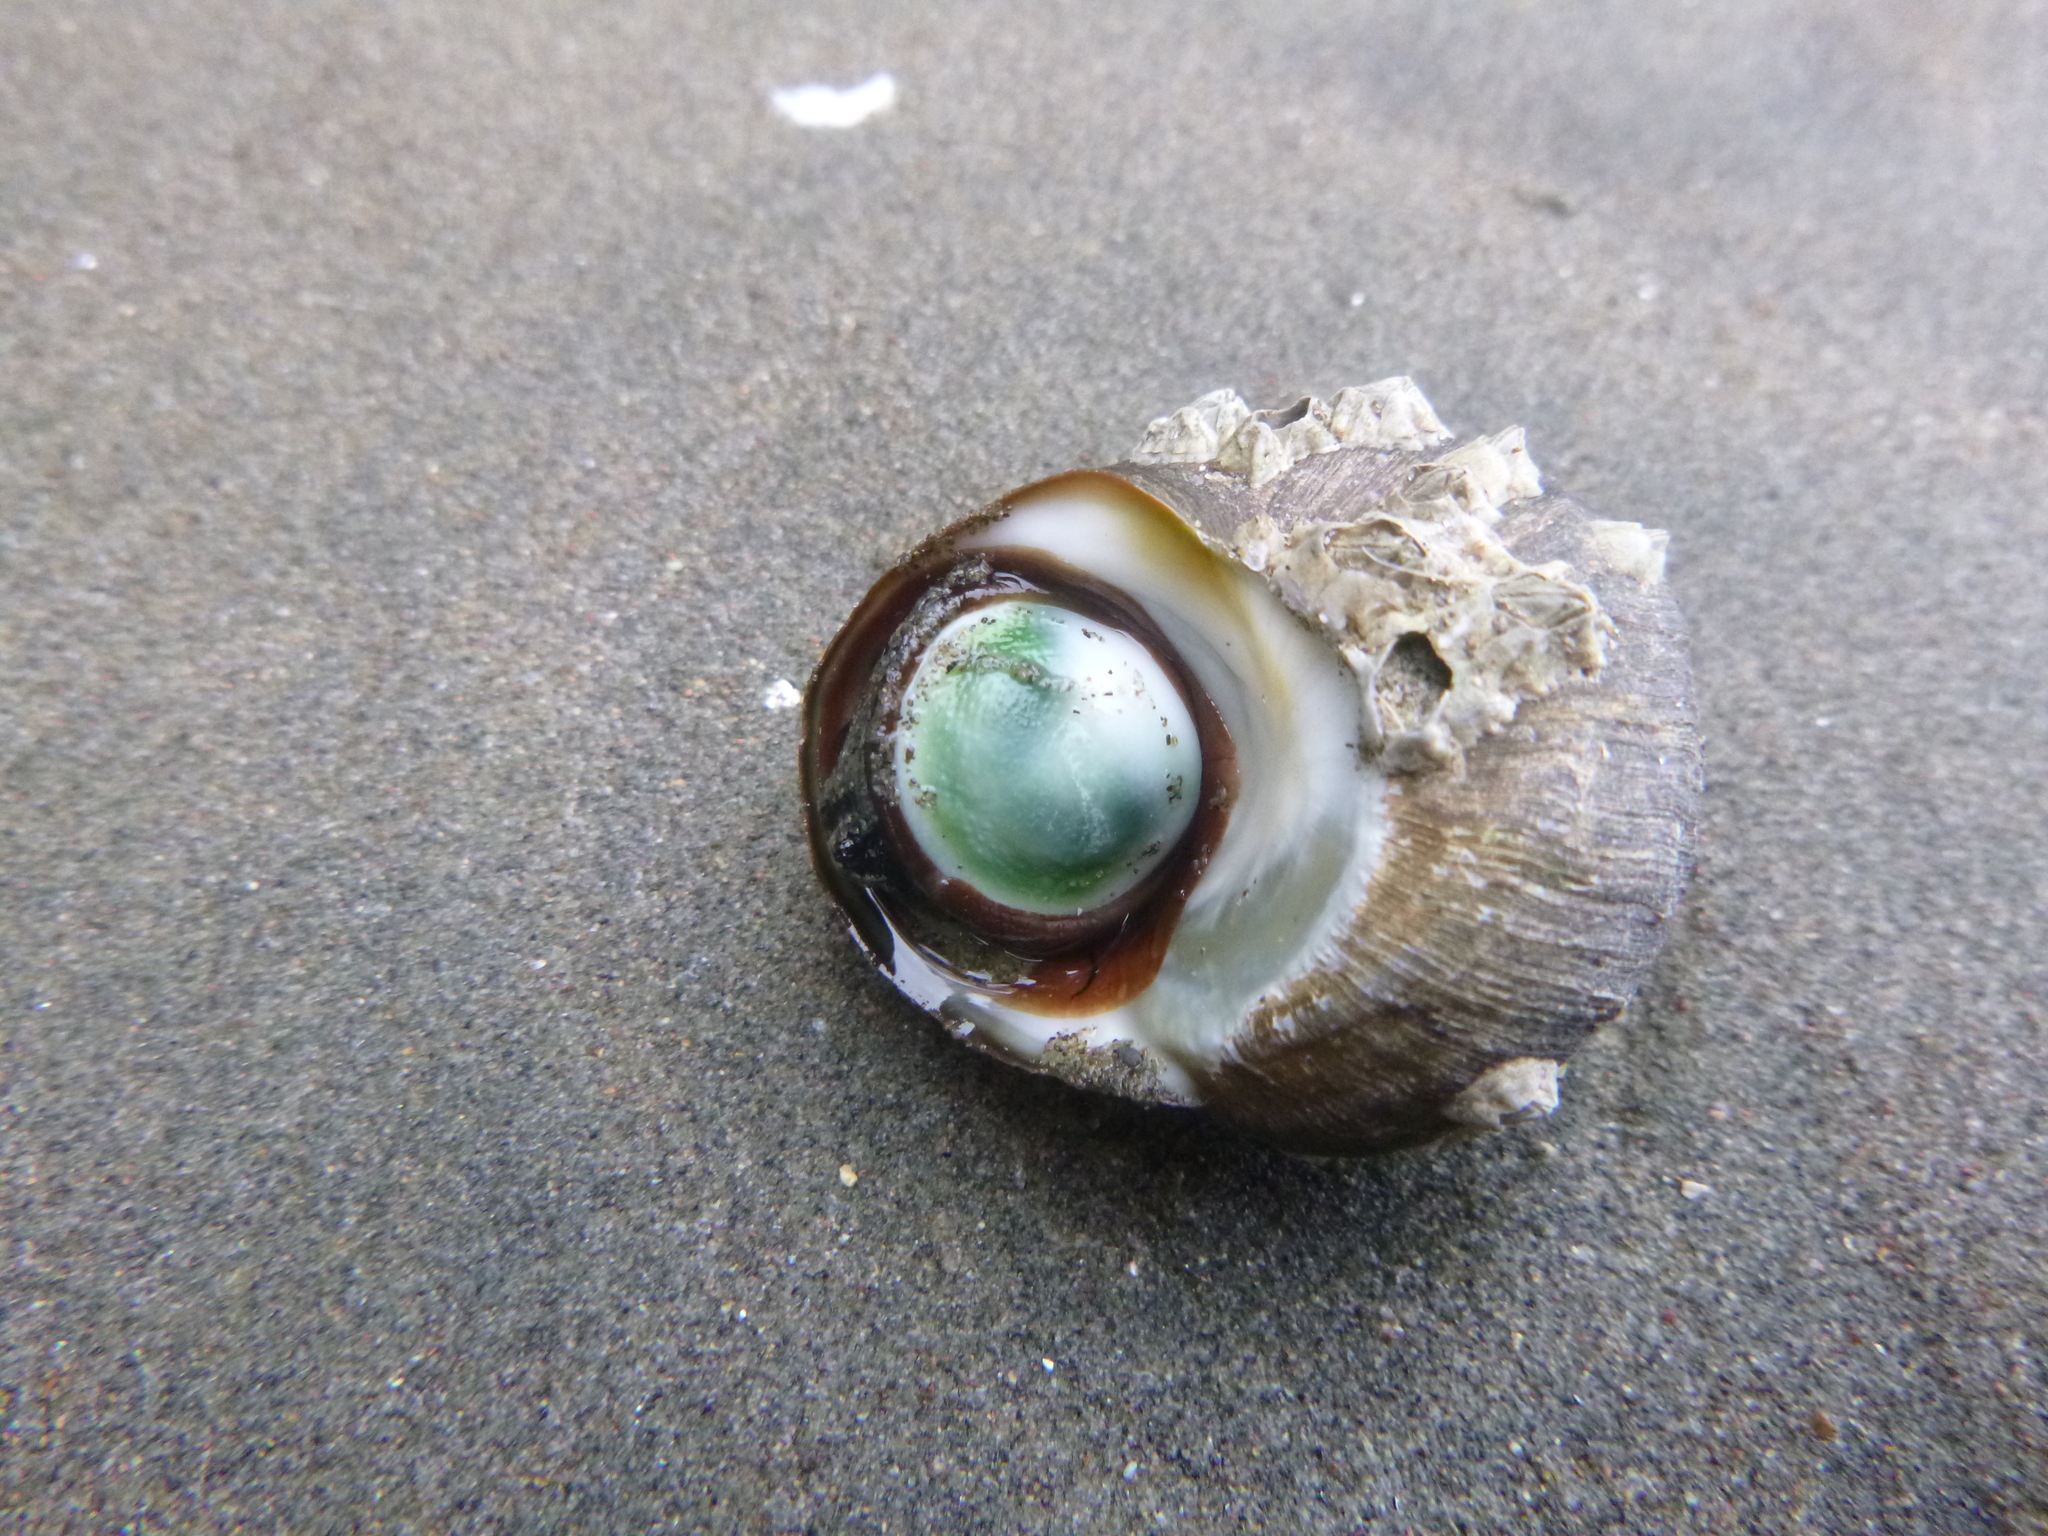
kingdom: Animalia
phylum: Mollusca
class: Gastropoda
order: Trochida
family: Turbinidae
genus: Lunella
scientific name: Lunella smaragda
